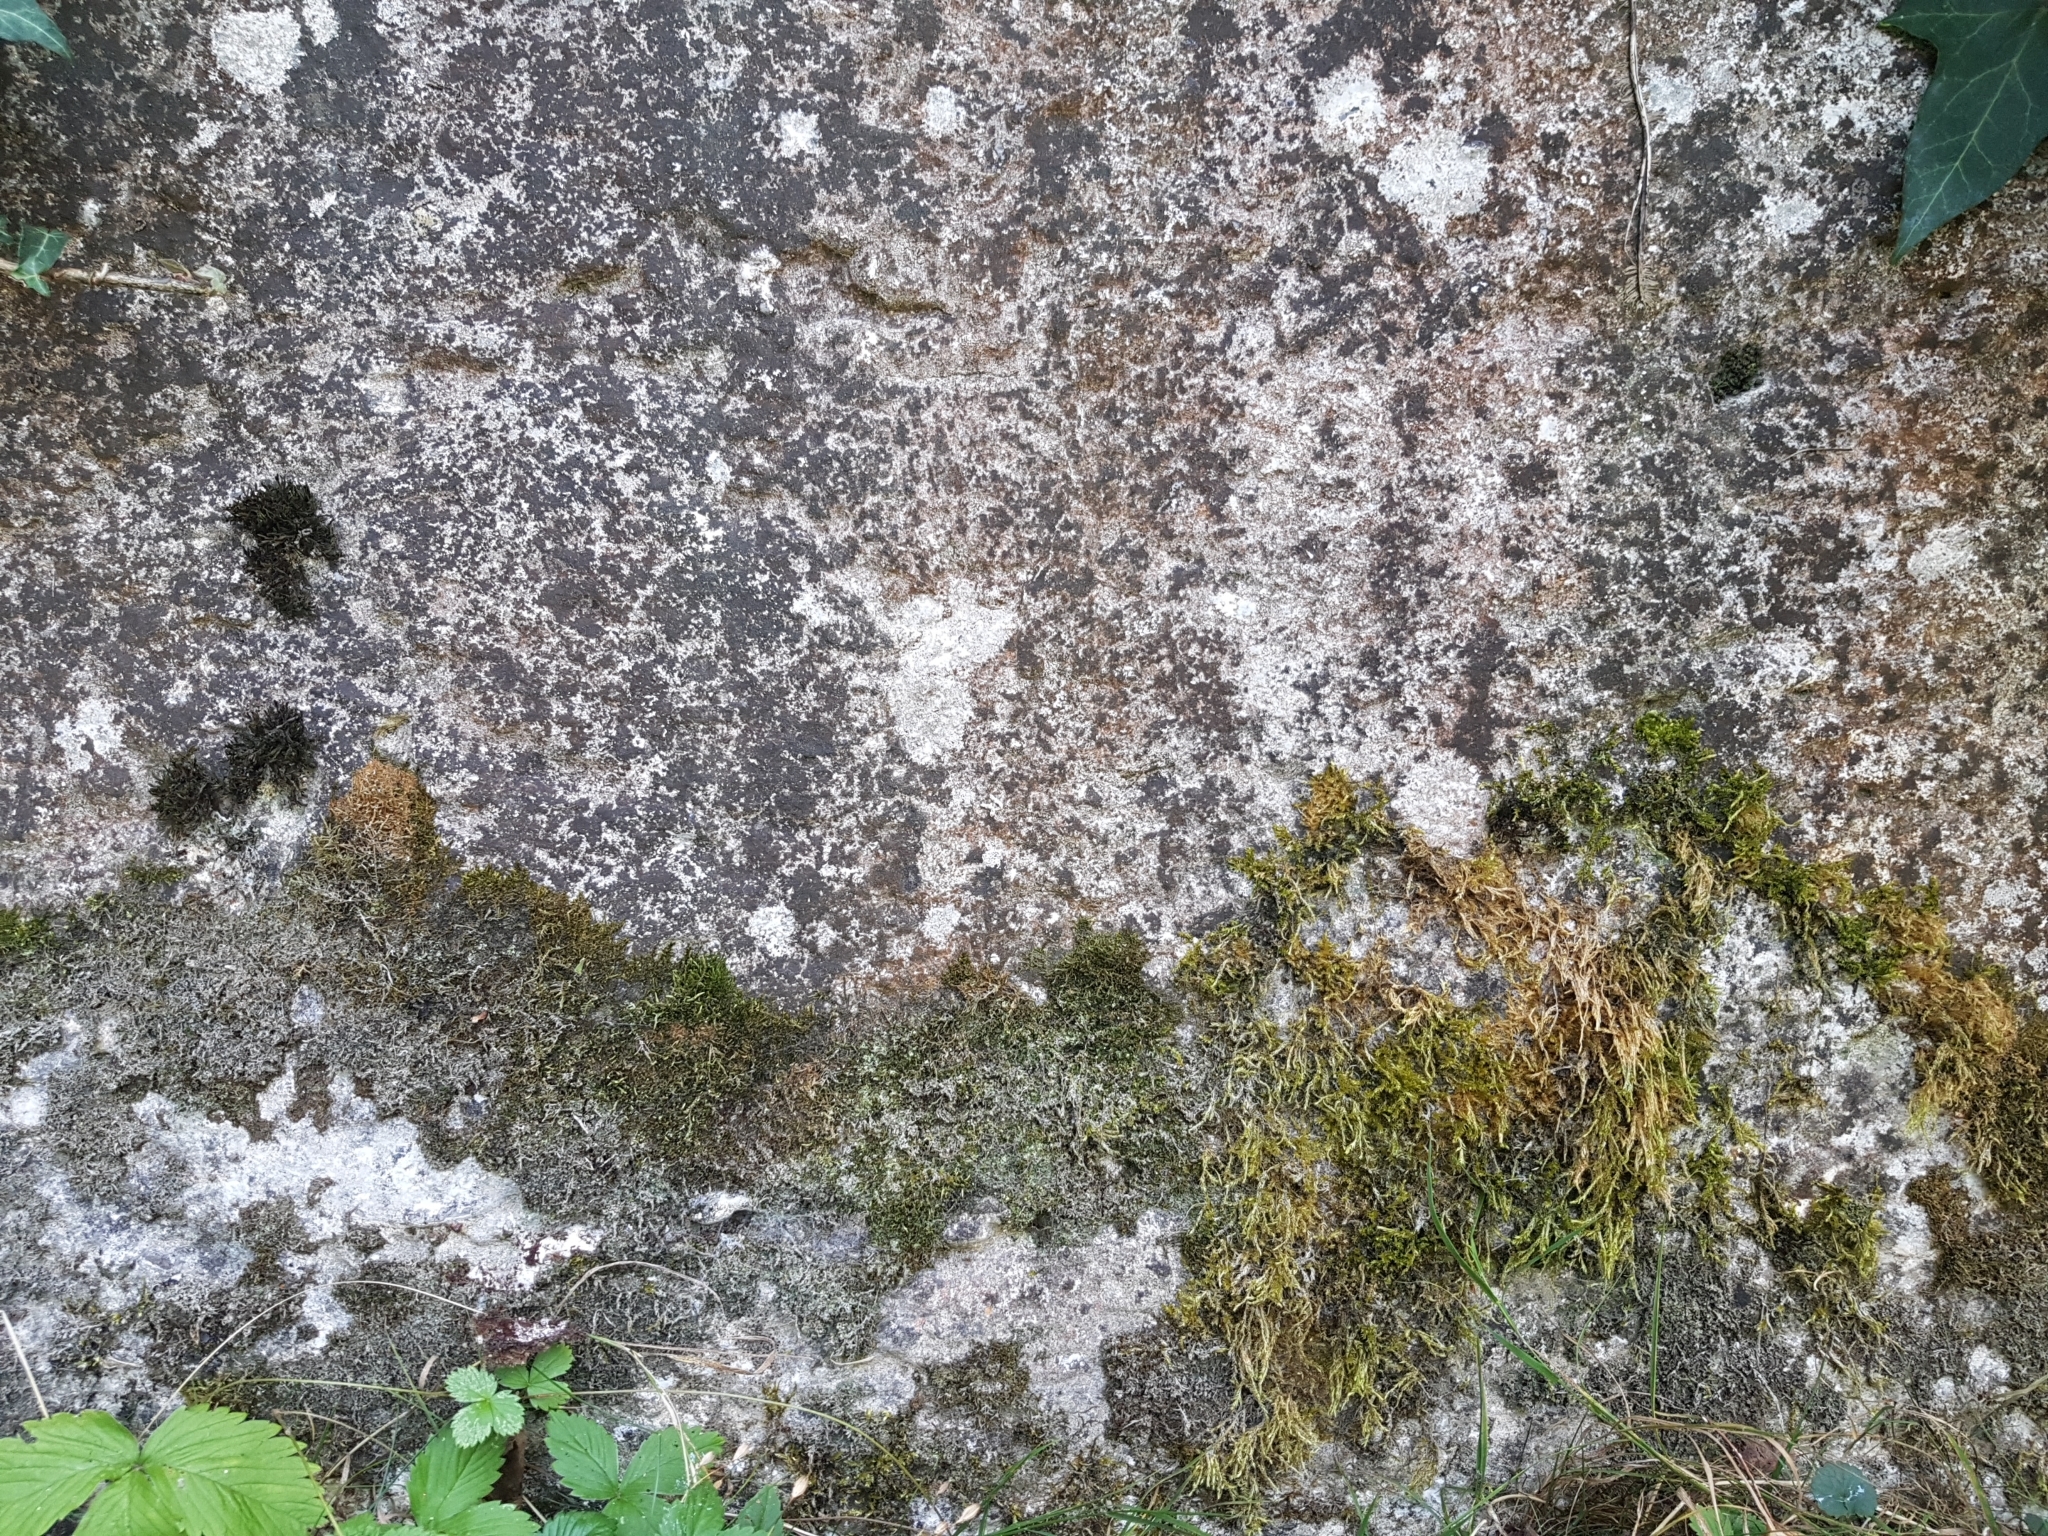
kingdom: Plantae
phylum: Bryophyta
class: Bryopsida
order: Pottiales
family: Pottiaceae
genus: Tortula
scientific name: Tortula muralis
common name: Wall screw-moss
